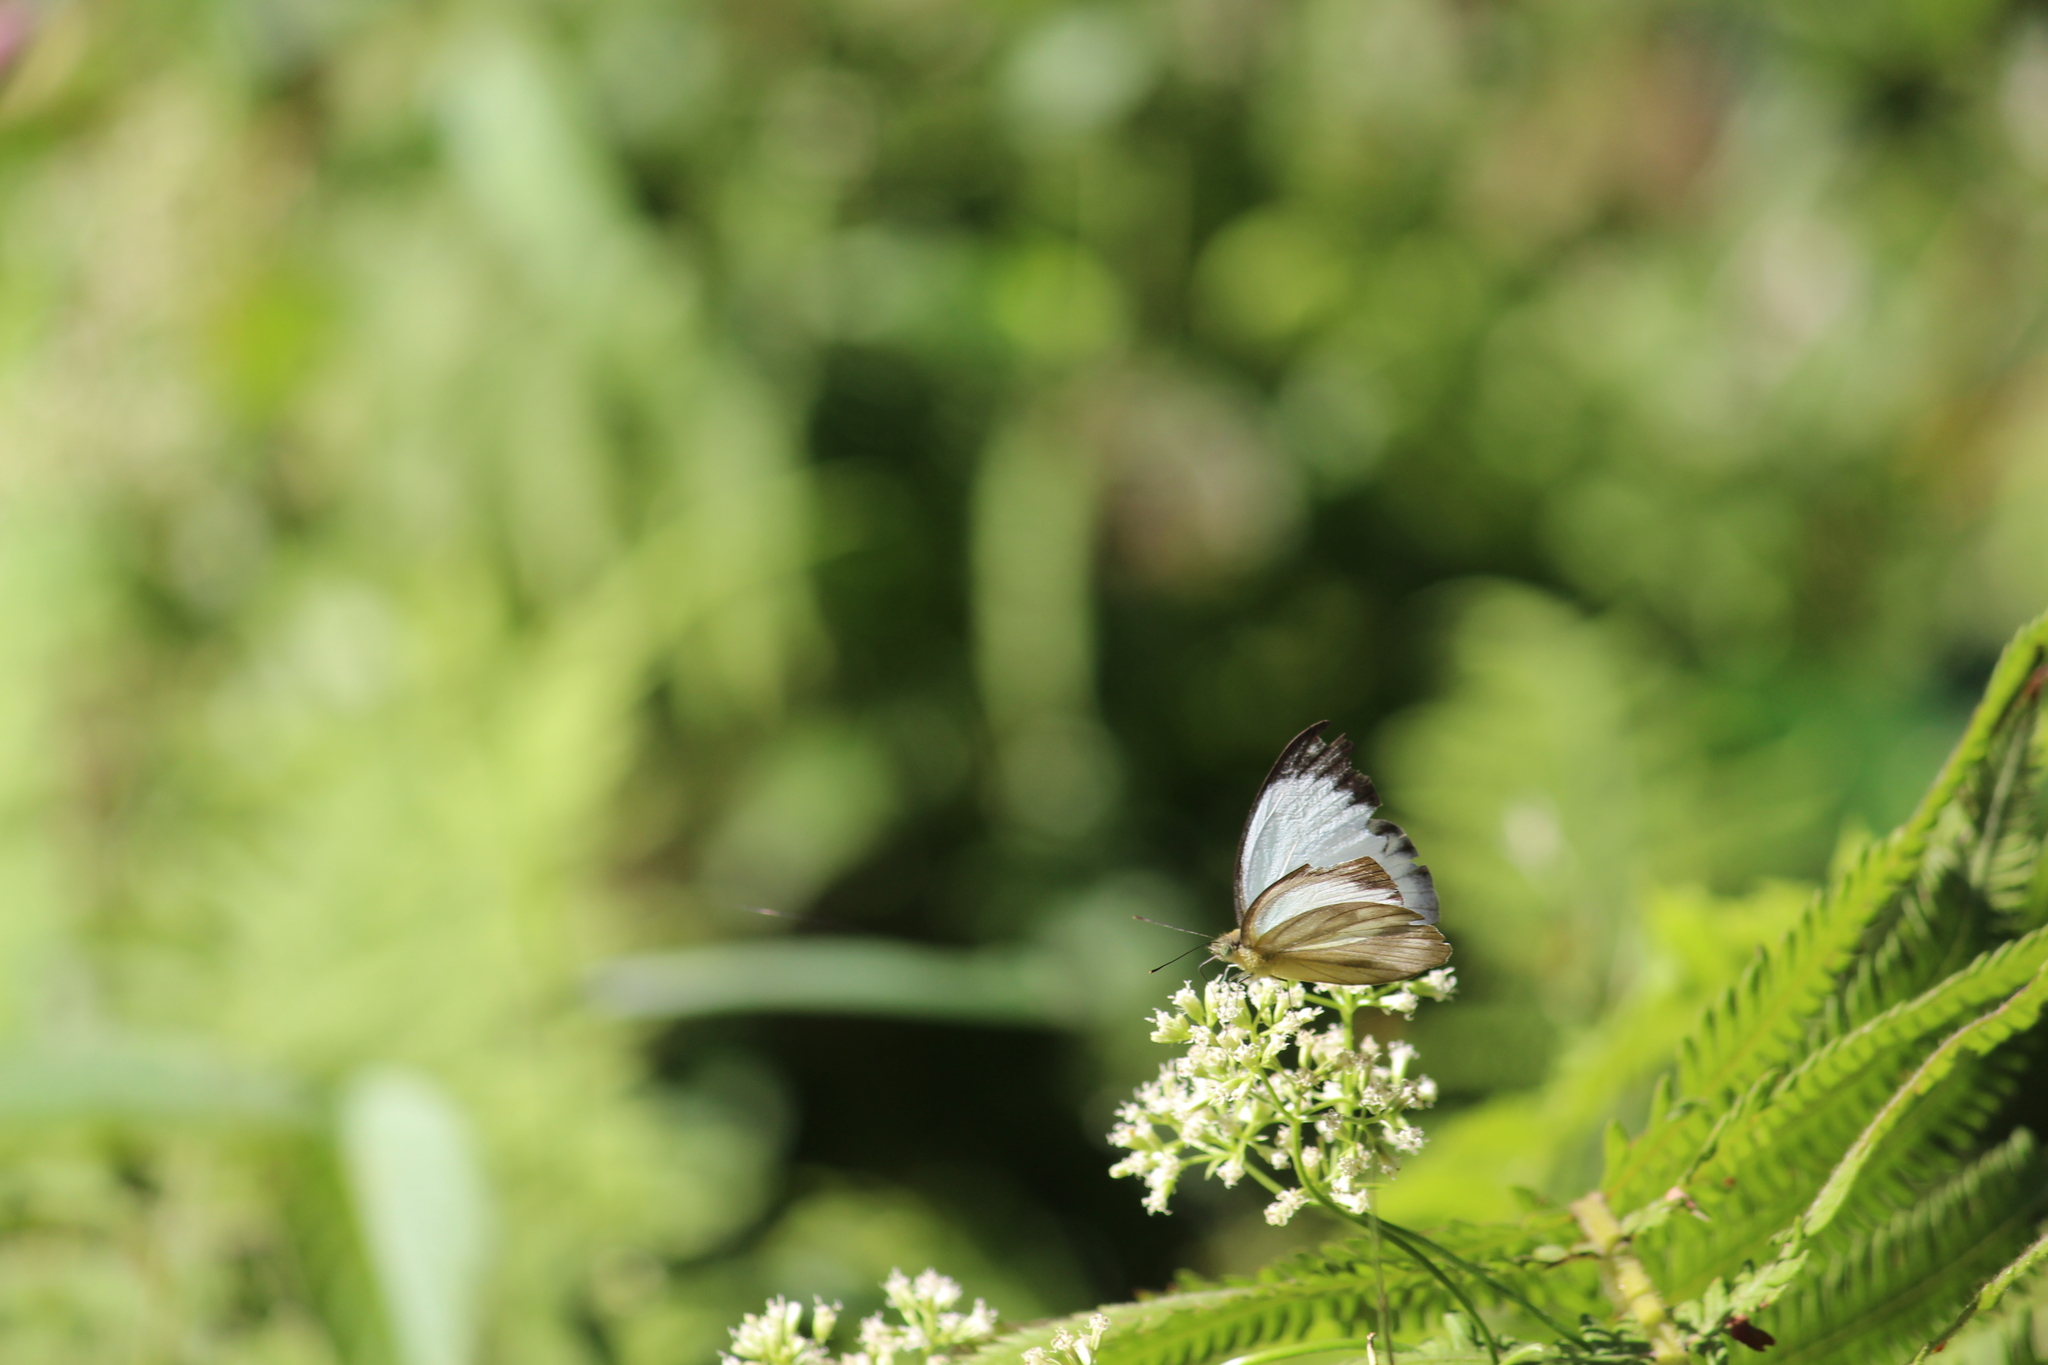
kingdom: Animalia
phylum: Arthropoda
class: Insecta
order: Lepidoptera
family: Pieridae
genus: Appias
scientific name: Appias albina
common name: Common albatross
